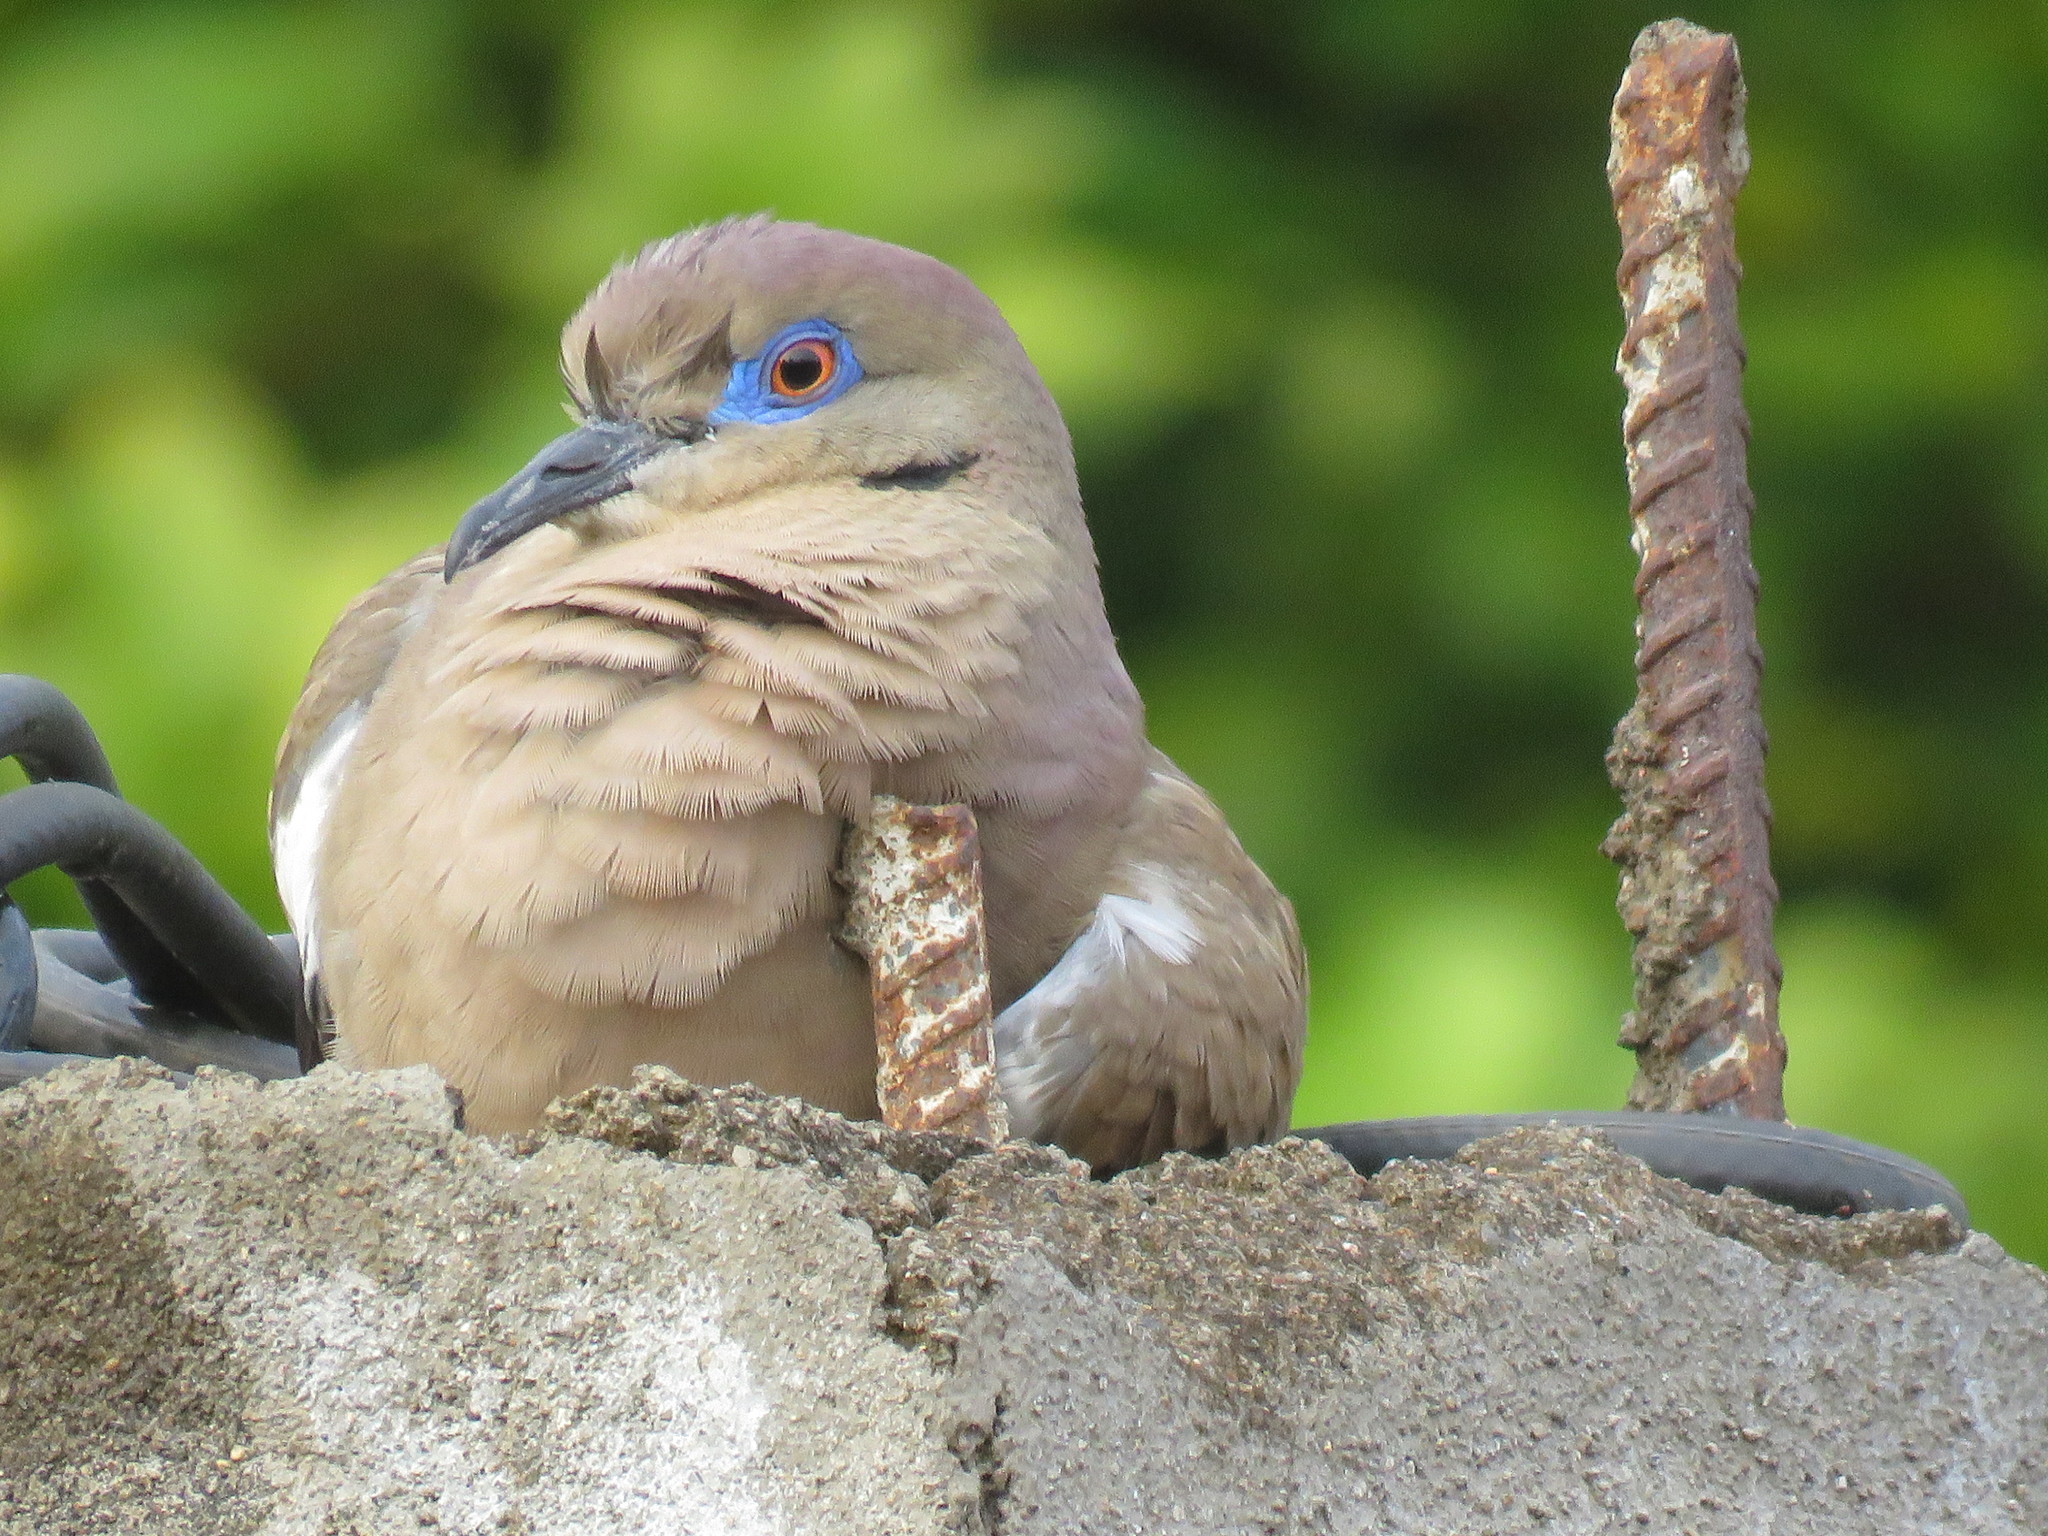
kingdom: Animalia
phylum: Chordata
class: Aves
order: Columbiformes
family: Columbidae
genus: Zenaida
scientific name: Zenaida asiatica
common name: White-winged dove
